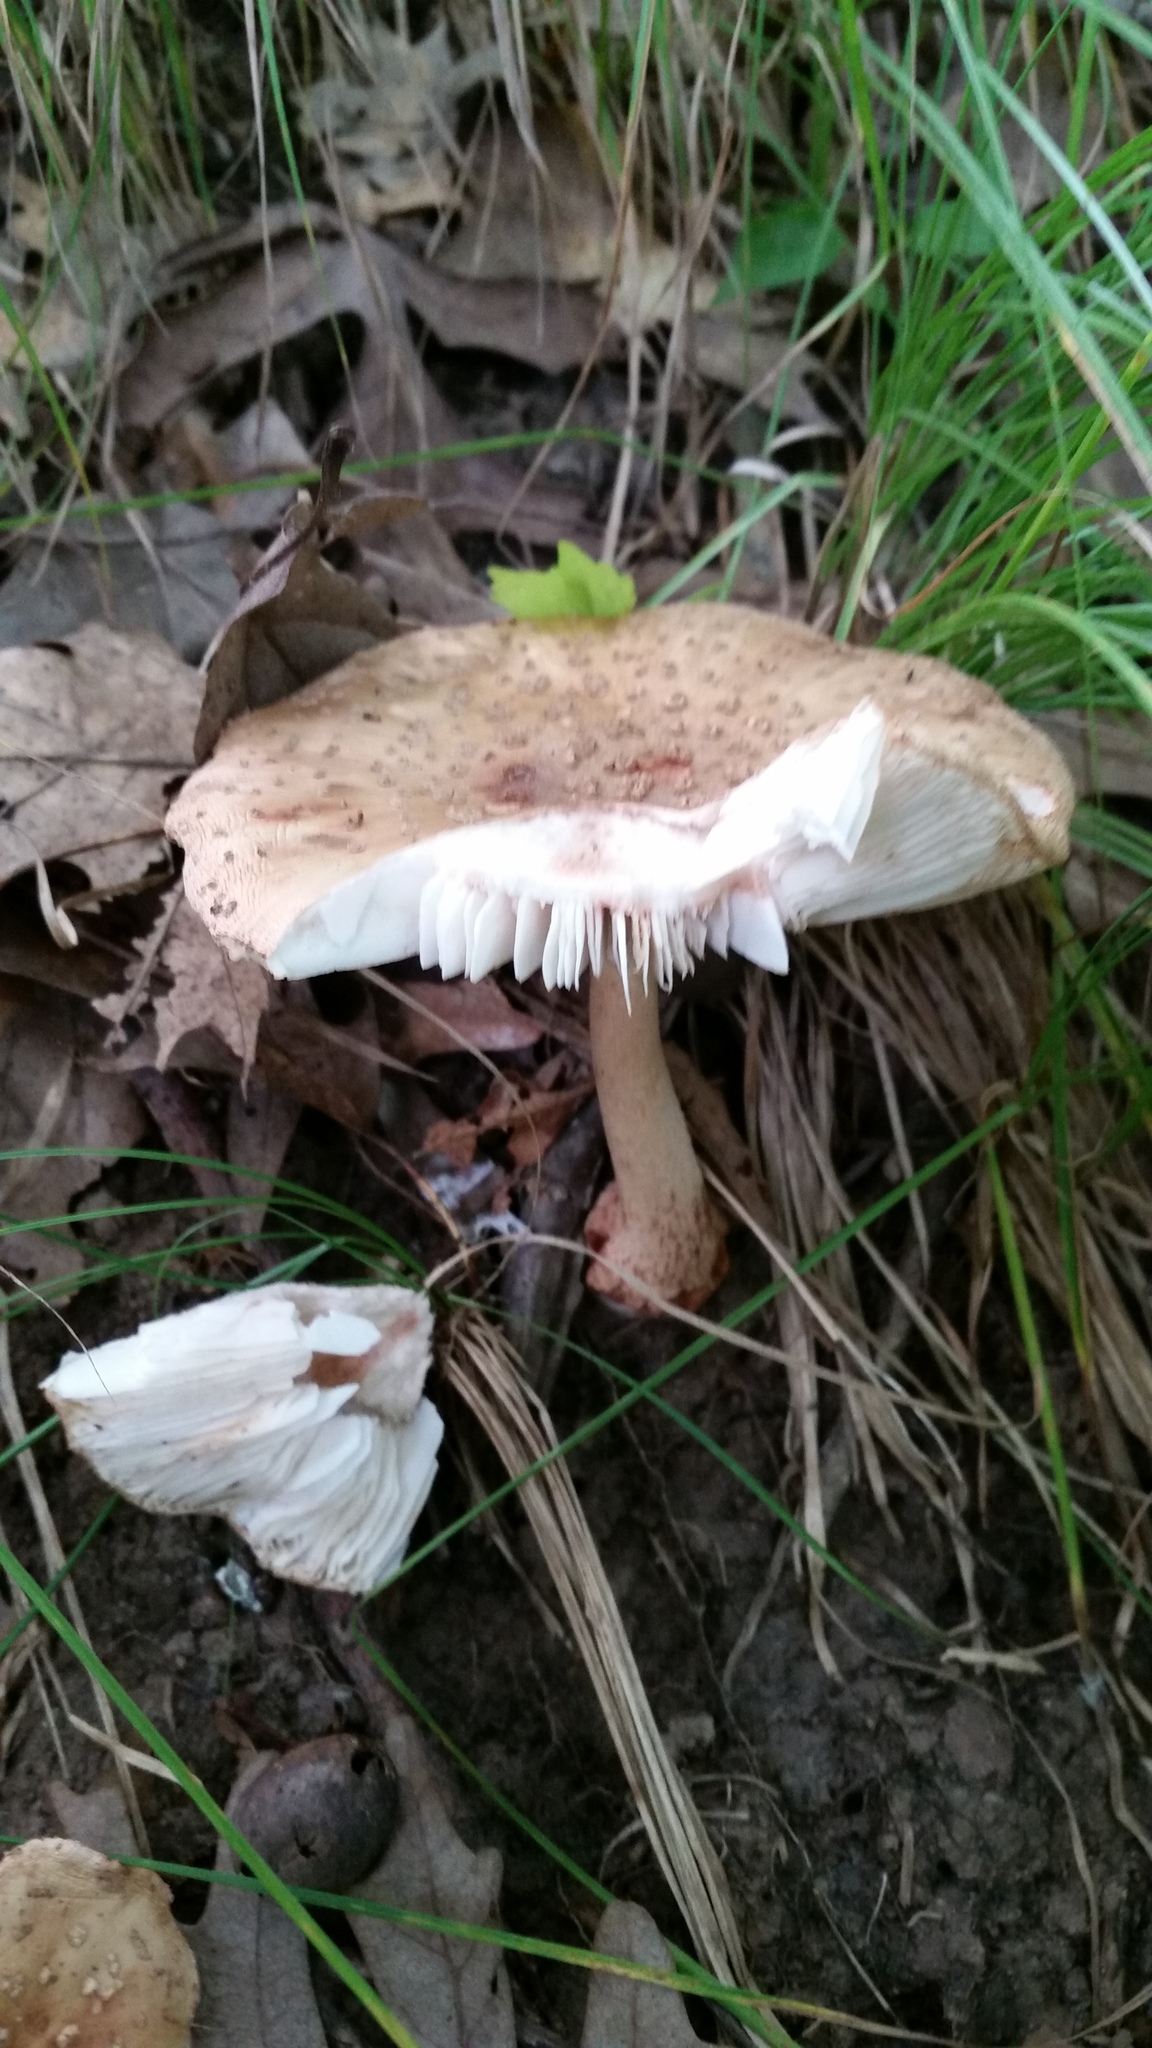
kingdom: Fungi
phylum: Basidiomycota
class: Agaricomycetes
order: Agaricales
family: Amanitaceae
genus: Amanita
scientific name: Amanita rubescens
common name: Blusher
